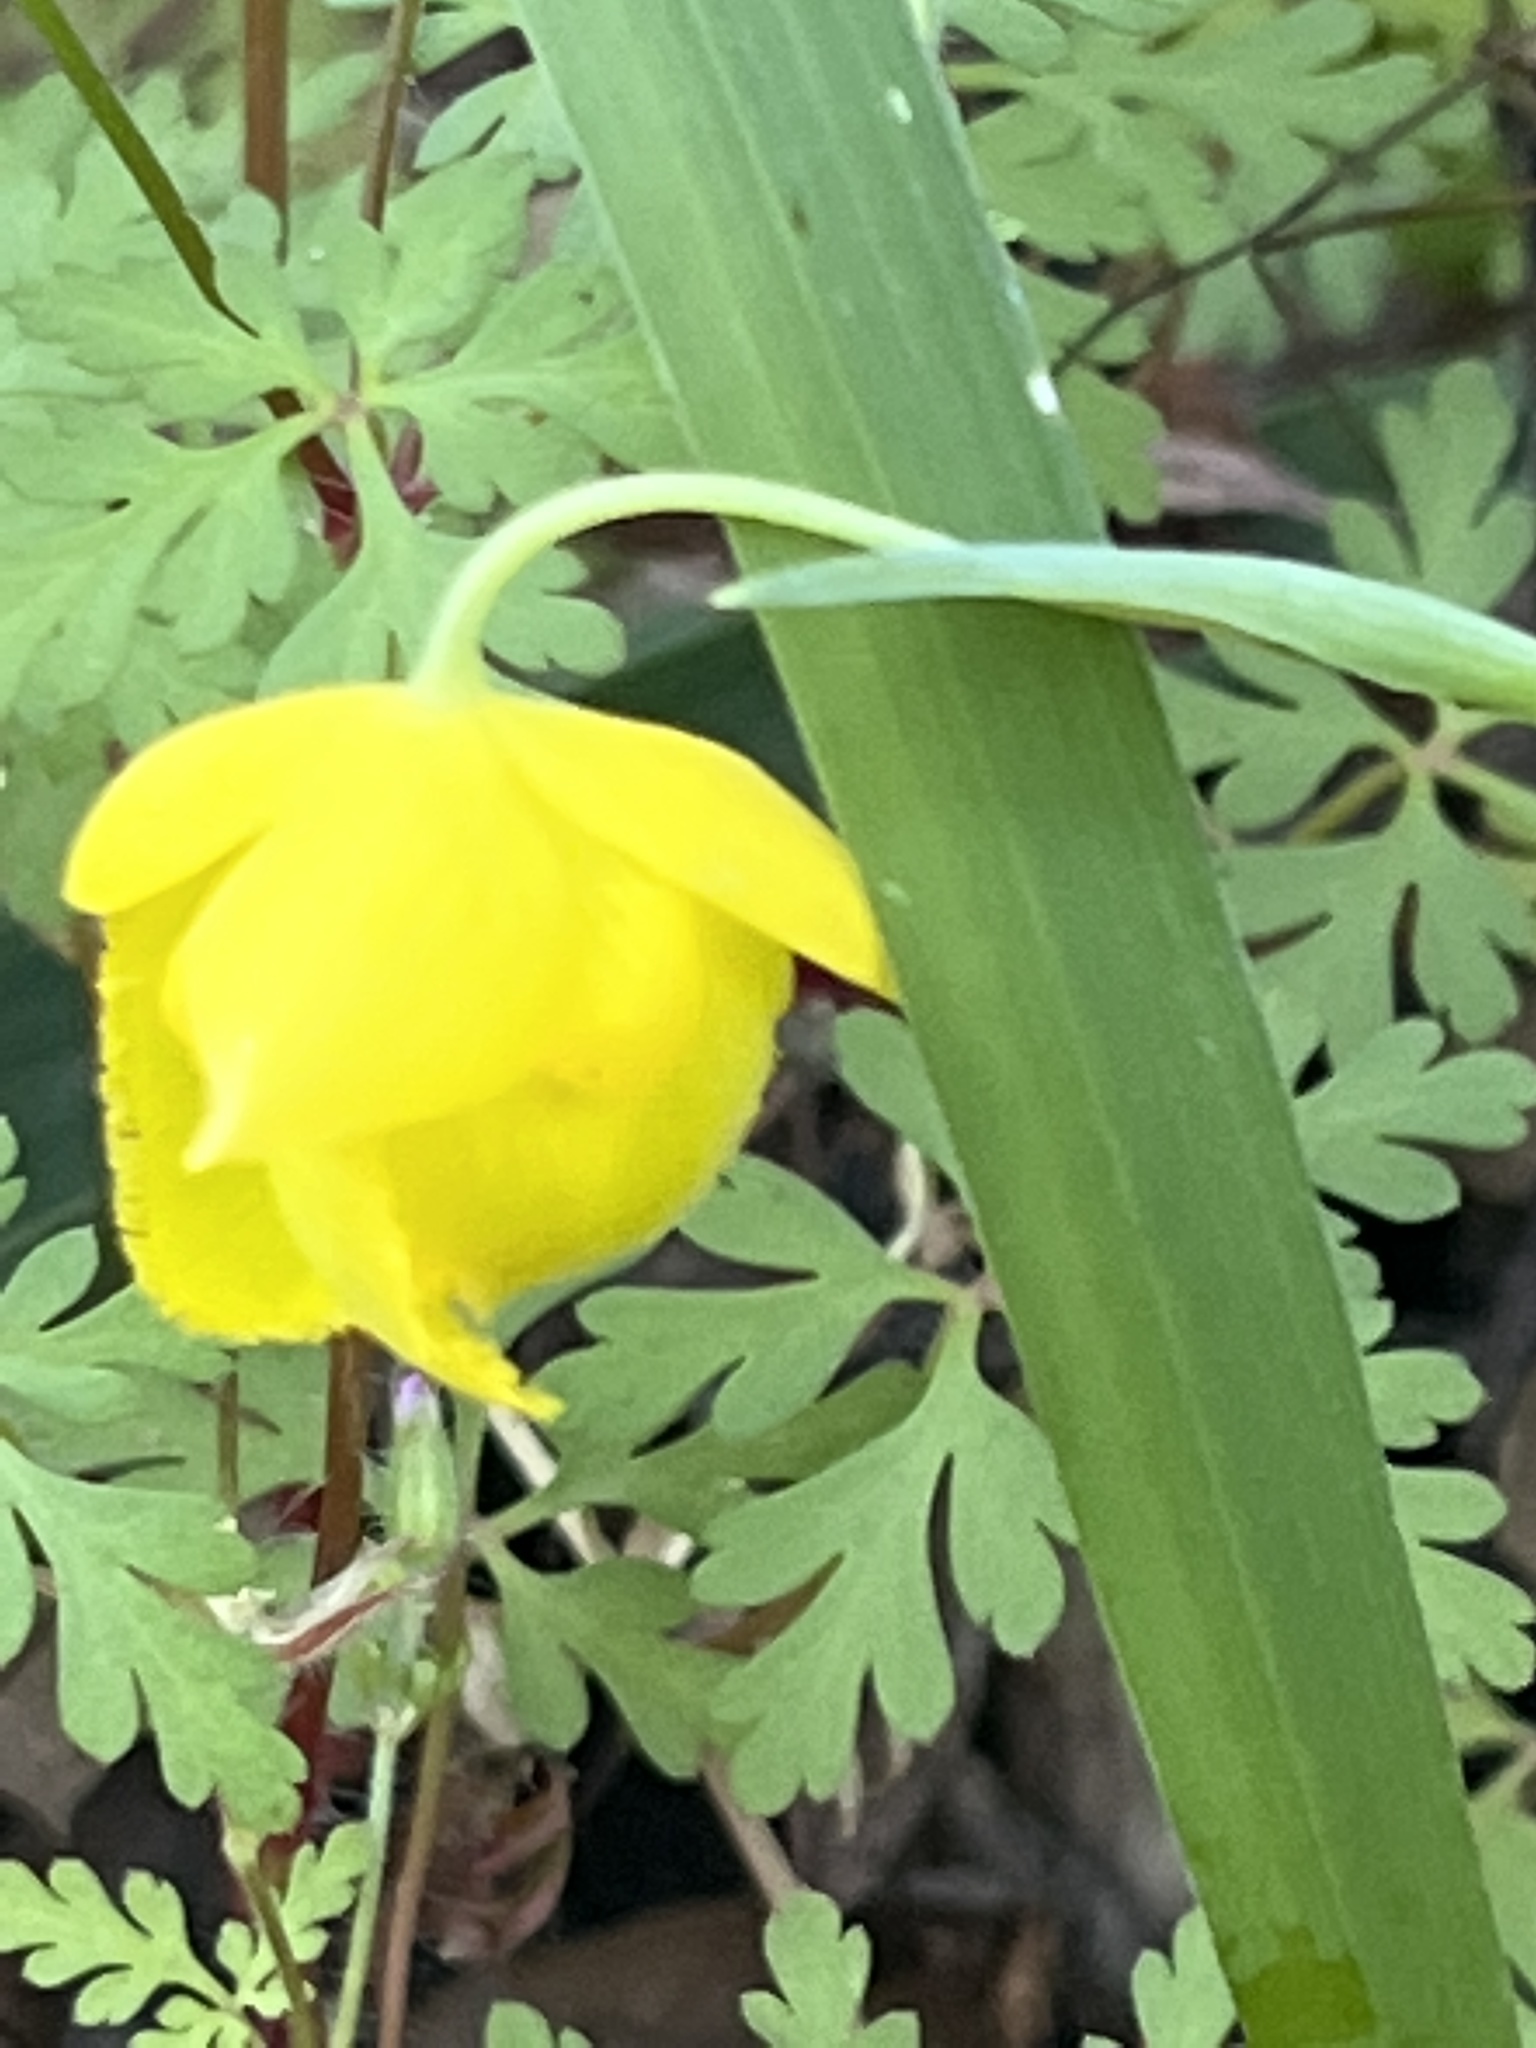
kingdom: Plantae
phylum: Tracheophyta
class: Liliopsida
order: Liliales
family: Liliaceae
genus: Calochortus
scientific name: Calochortus amabilis
